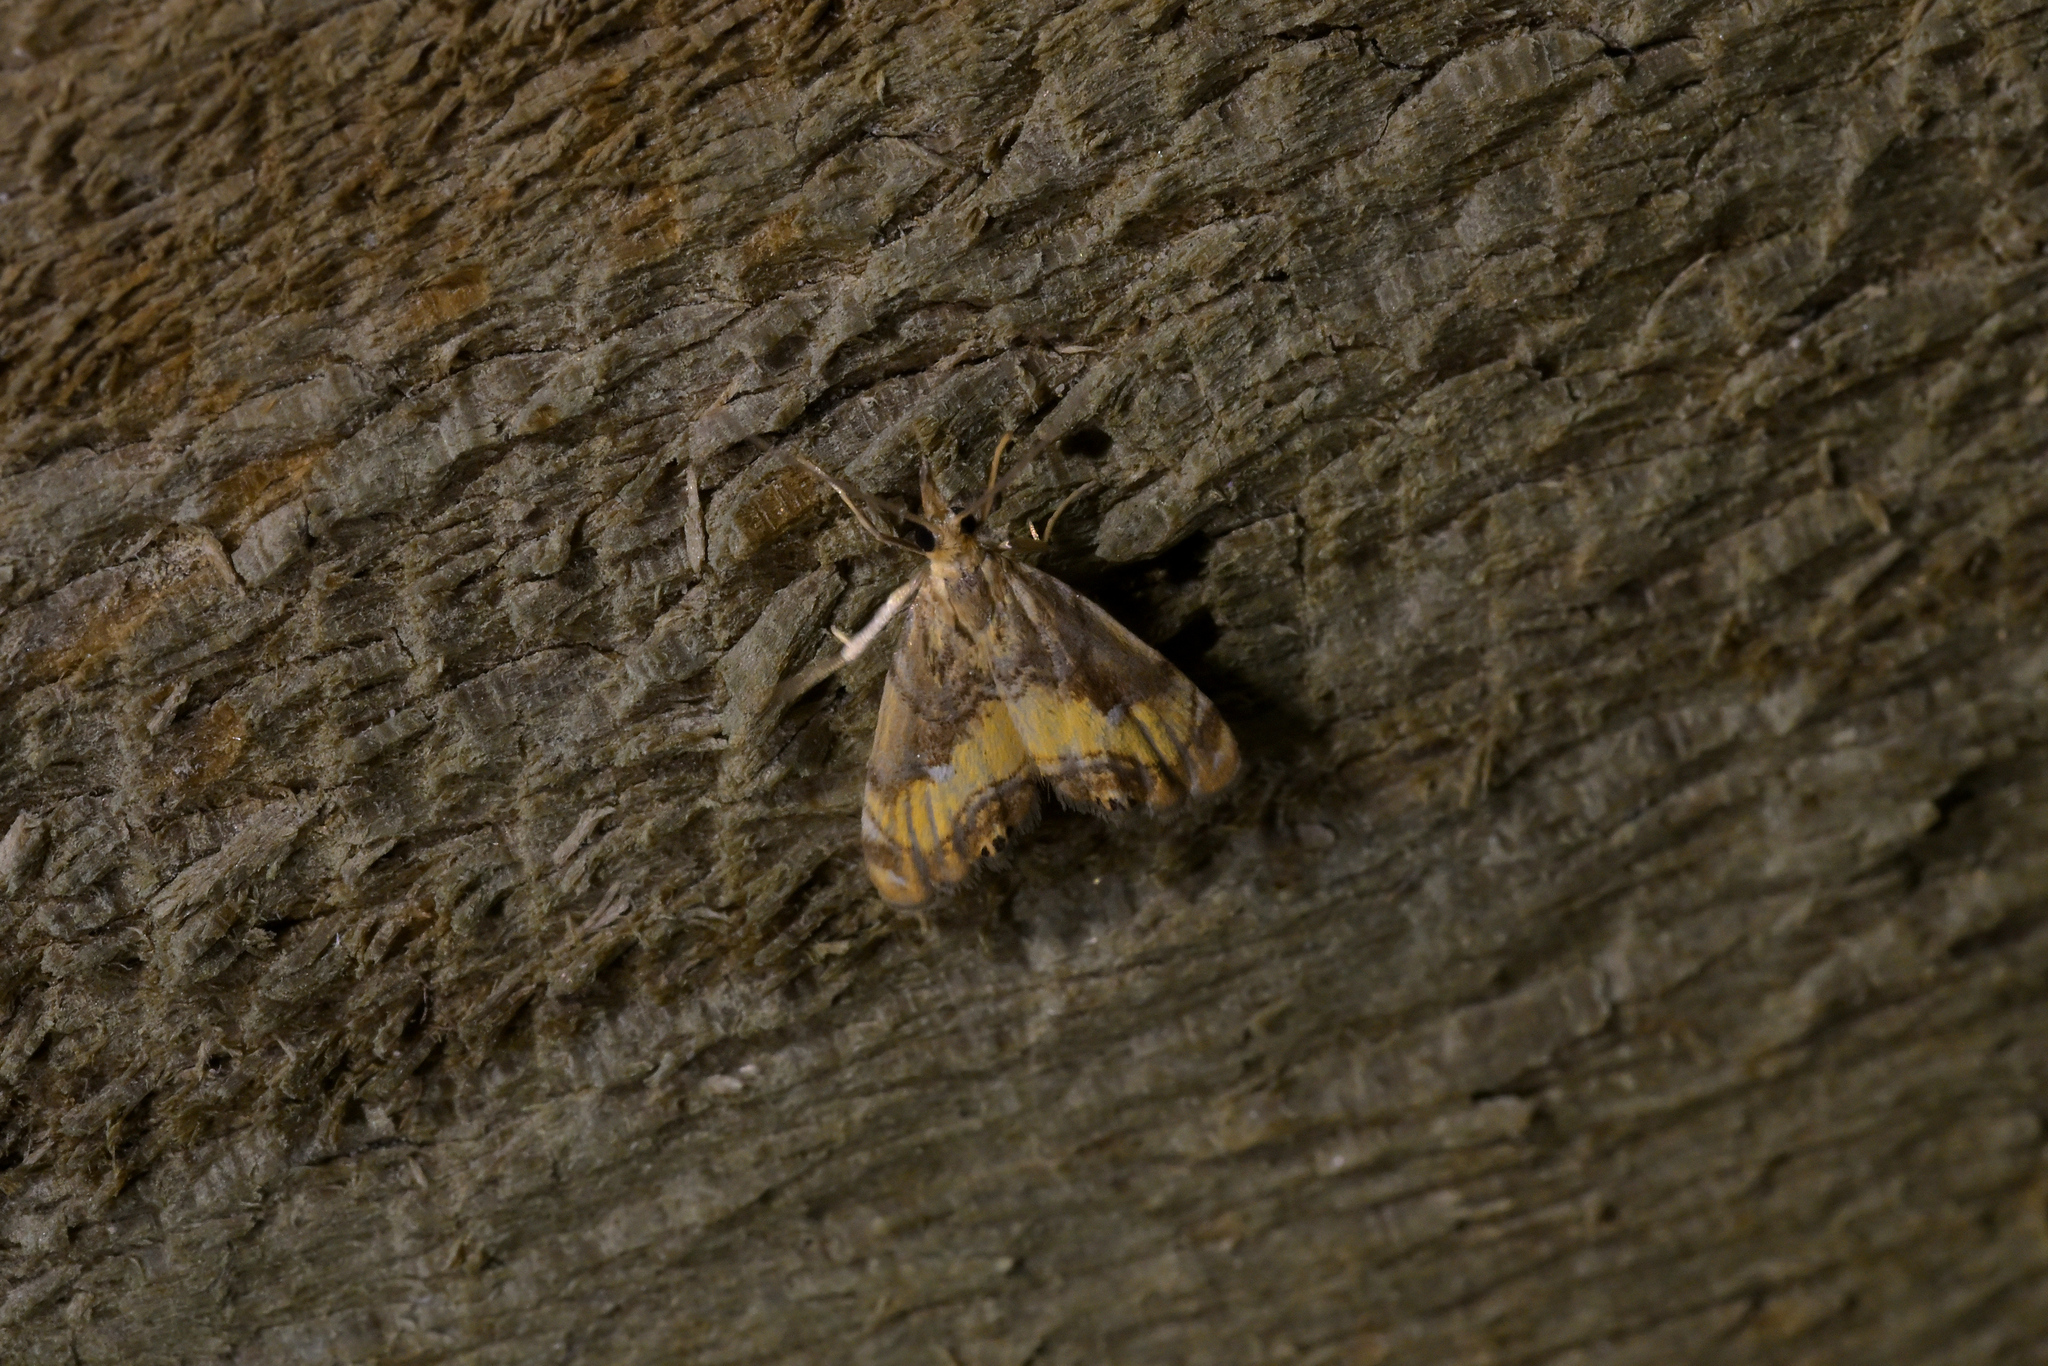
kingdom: Animalia
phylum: Arthropoda
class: Insecta
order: Lepidoptera
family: Crambidae
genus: Glaucocharis
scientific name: Glaucocharis chrysochyta
